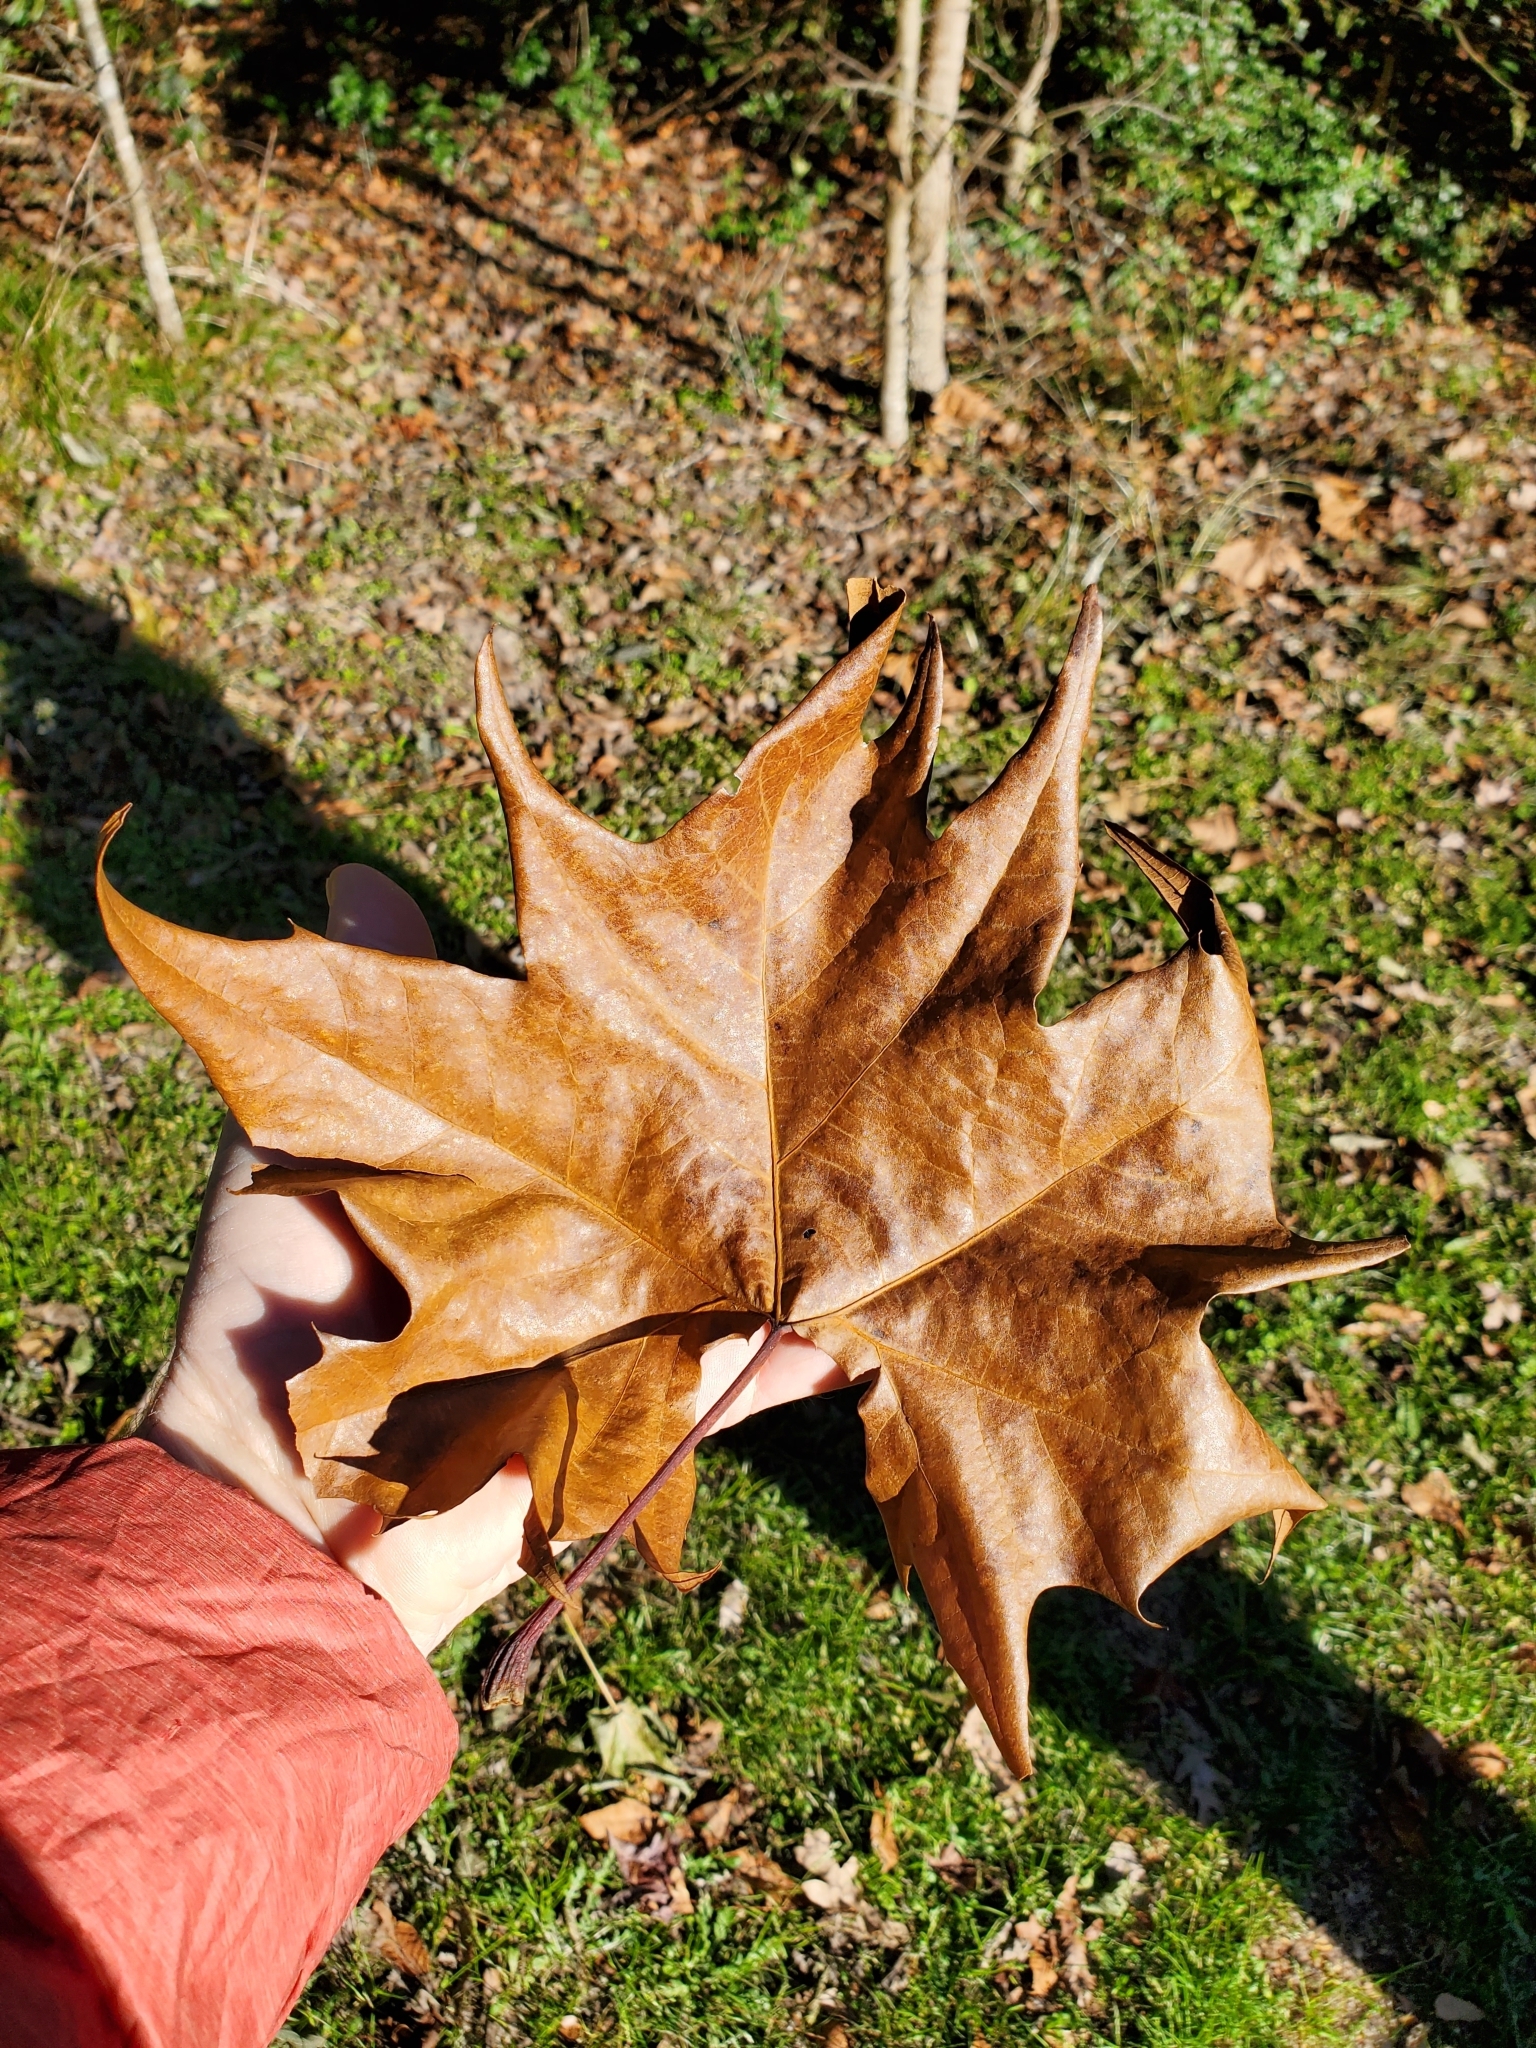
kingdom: Plantae
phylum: Tracheophyta
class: Magnoliopsida
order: Proteales
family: Platanaceae
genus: Platanus
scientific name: Platanus occidentalis
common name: American sycamore
